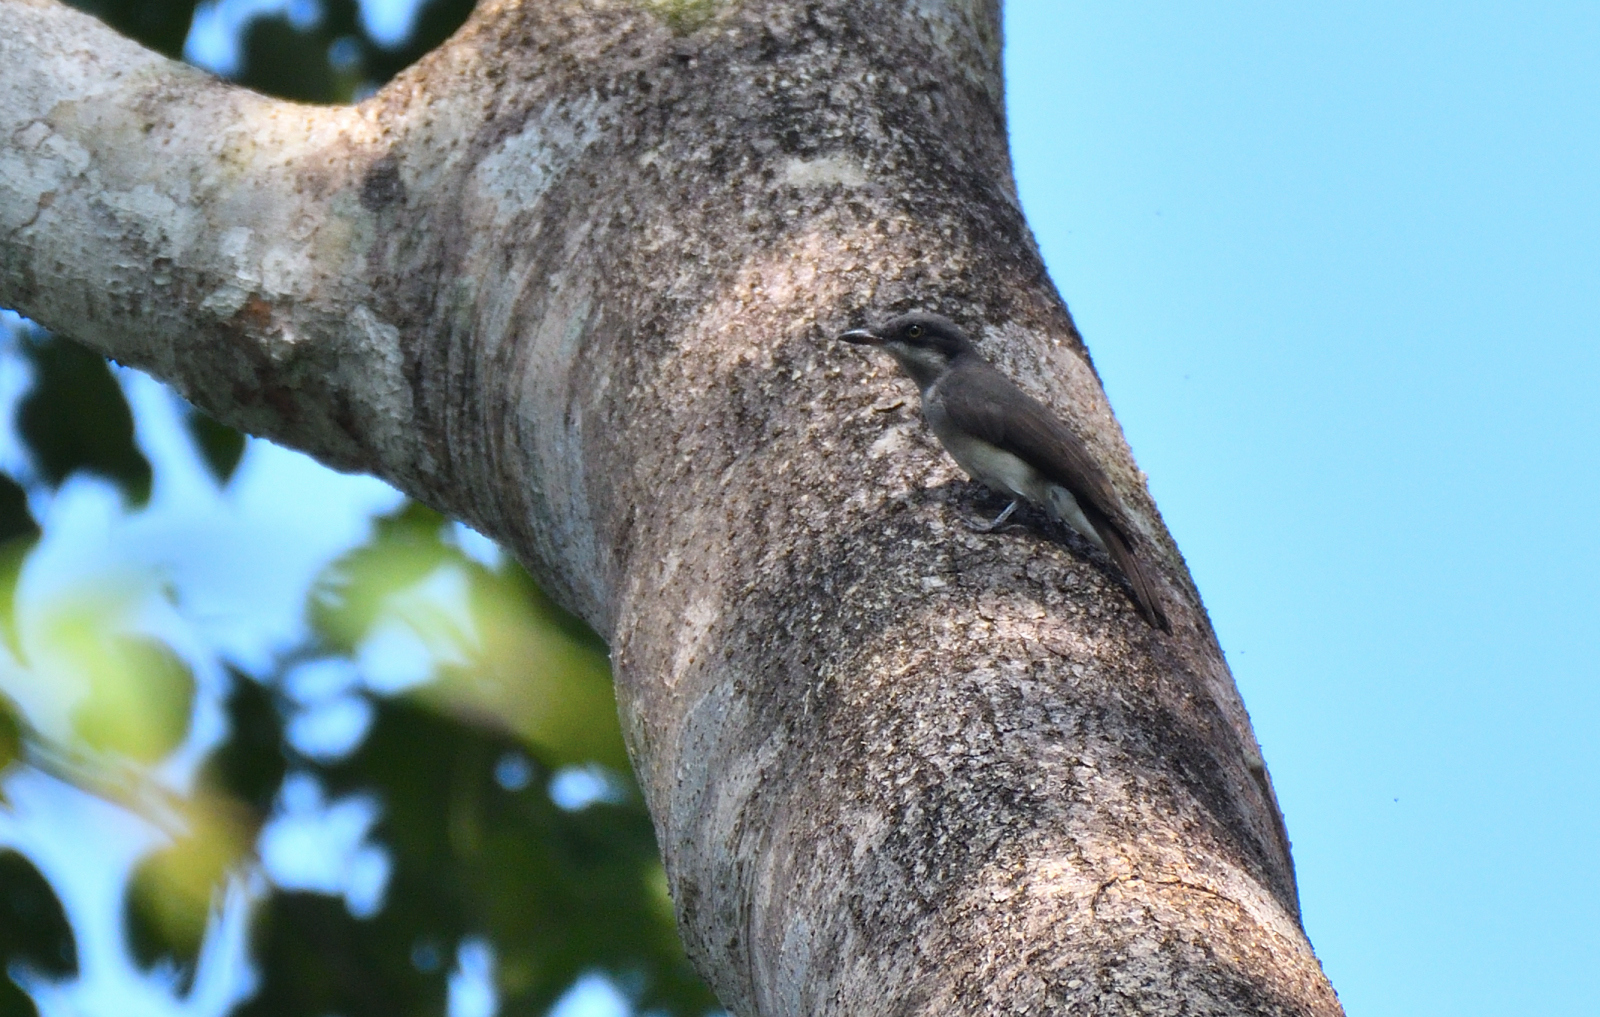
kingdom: Animalia
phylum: Chordata
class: Aves
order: Passeriformes
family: Tephrodornithidae
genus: Tephrodornis
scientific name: Tephrodornis sylvicola
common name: Malabar woodshrike
